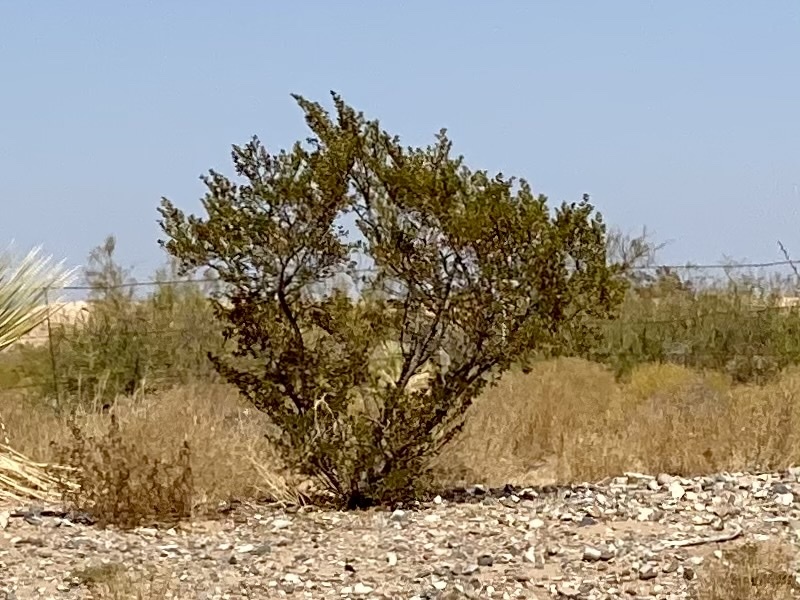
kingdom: Plantae
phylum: Tracheophyta
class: Magnoliopsida
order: Zygophyllales
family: Zygophyllaceae
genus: Larrea
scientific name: Larrea tridentata
